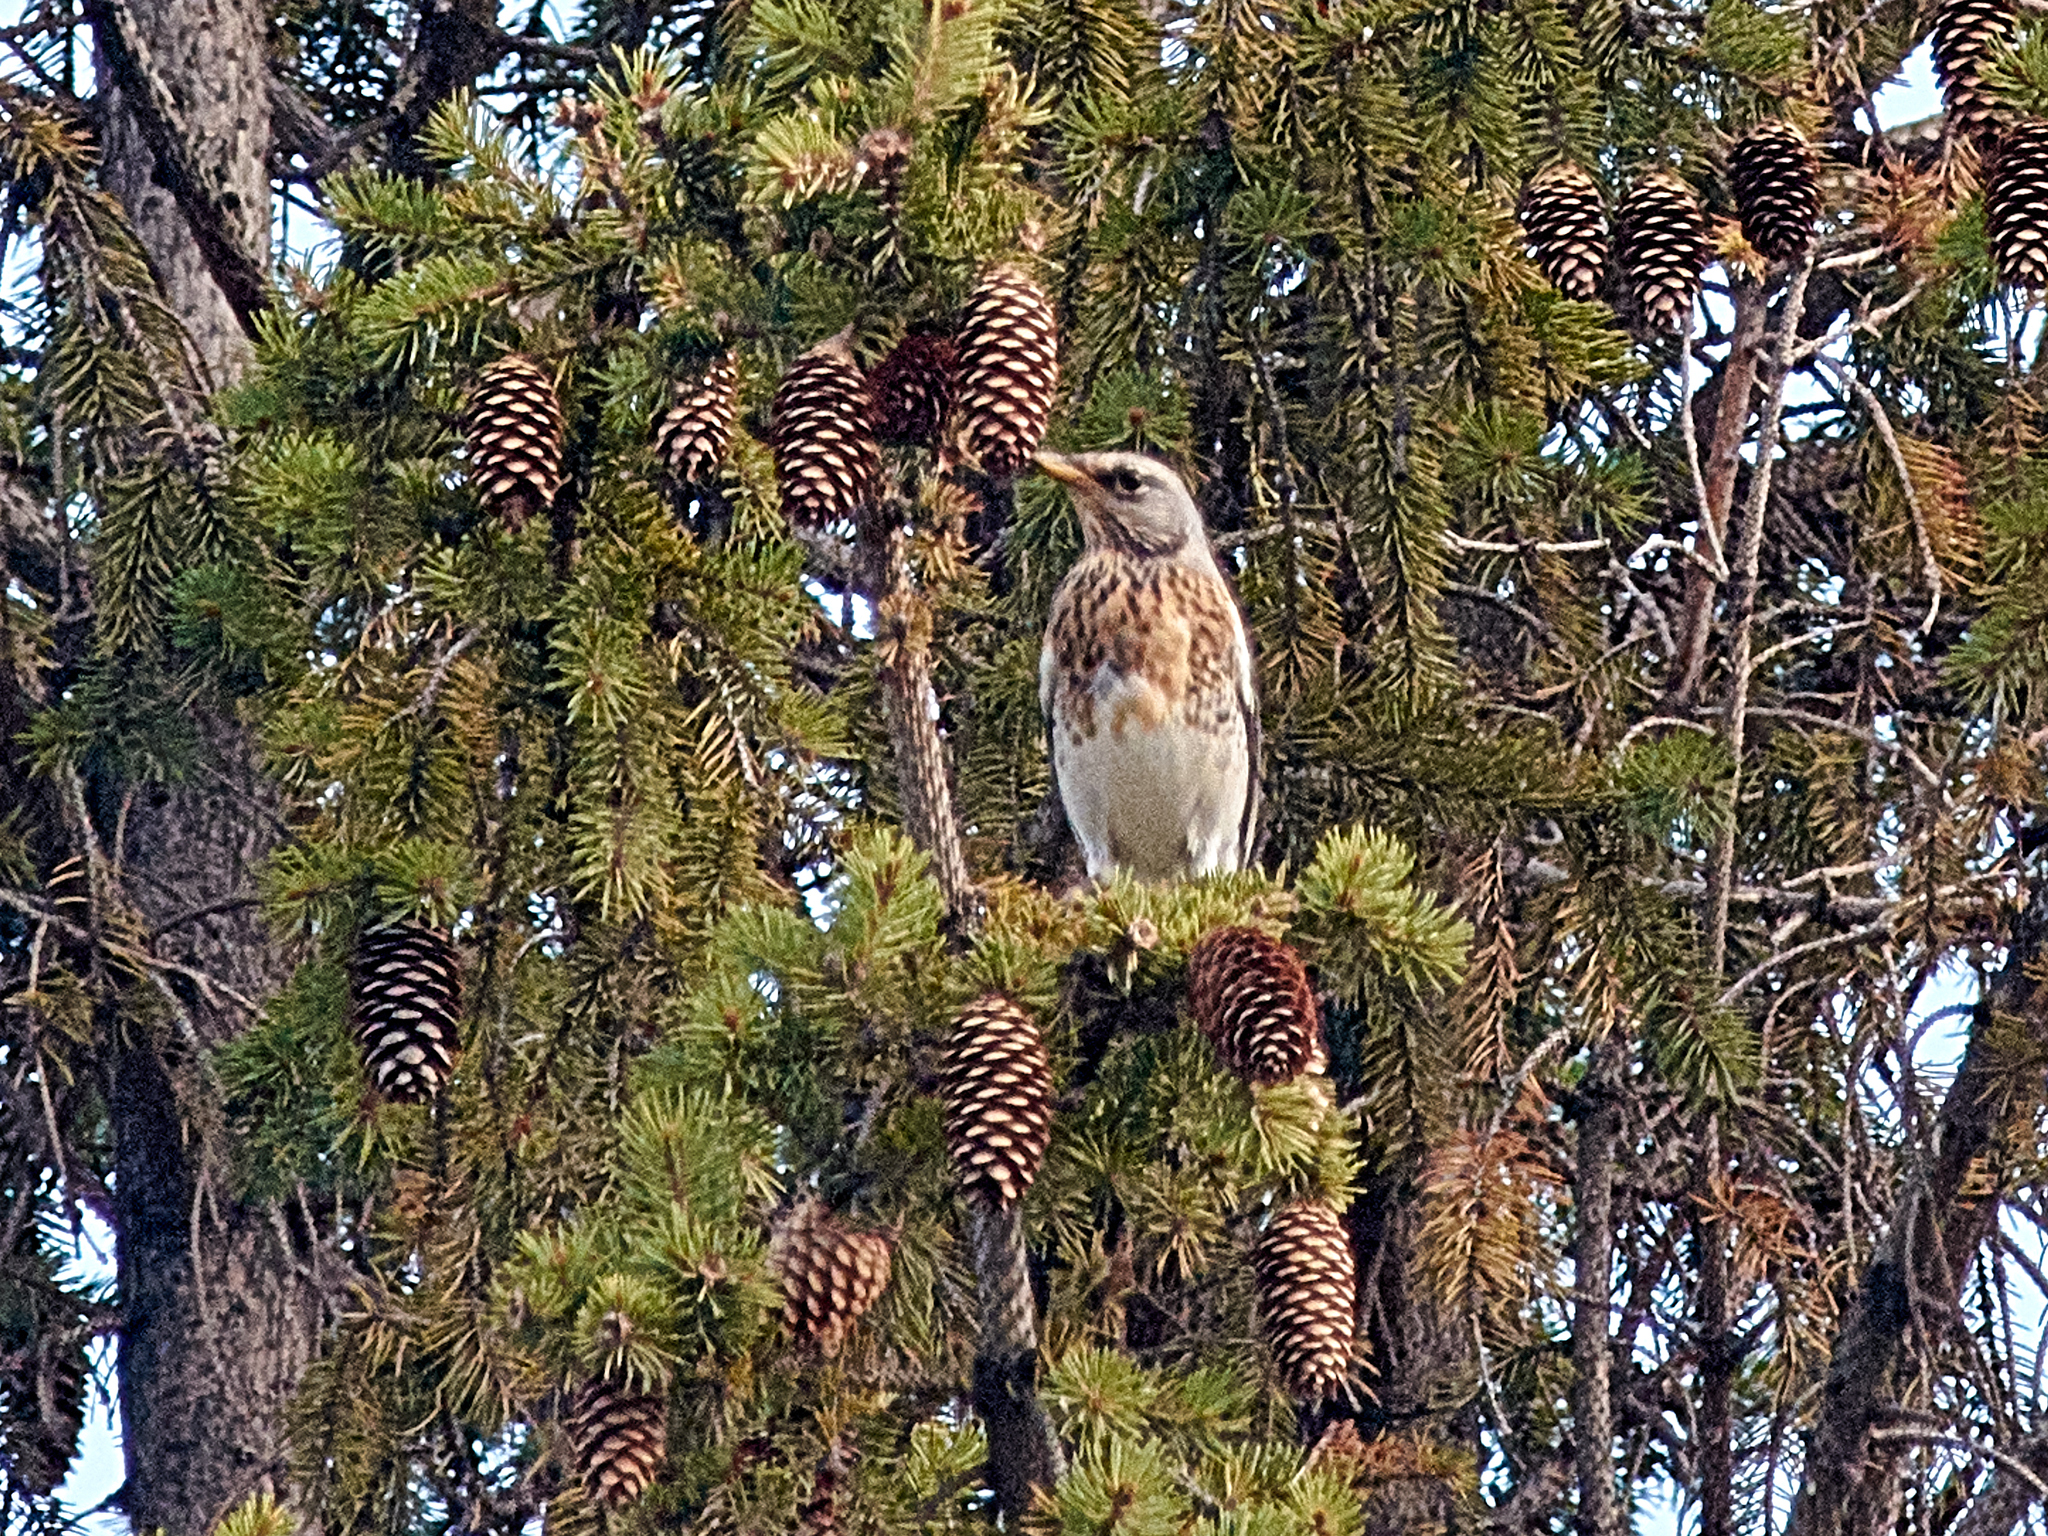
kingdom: Animalia
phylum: Chordata
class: Aves
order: Passeriformes
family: Turdidae
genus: Turdus
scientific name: Turdus pilaris
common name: Fieldfare
